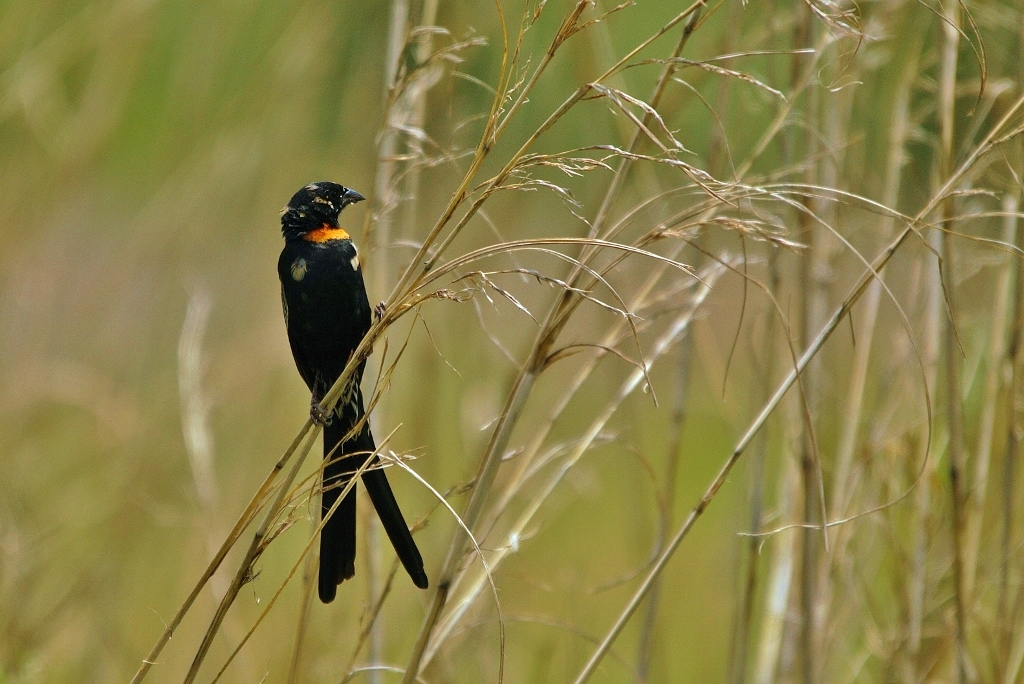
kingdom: Animalia
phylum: Chordata
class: Aves
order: Passeriformes
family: Ploceidae
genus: Euplectes
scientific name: Euplectes ardens
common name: Red-collared widowbird
